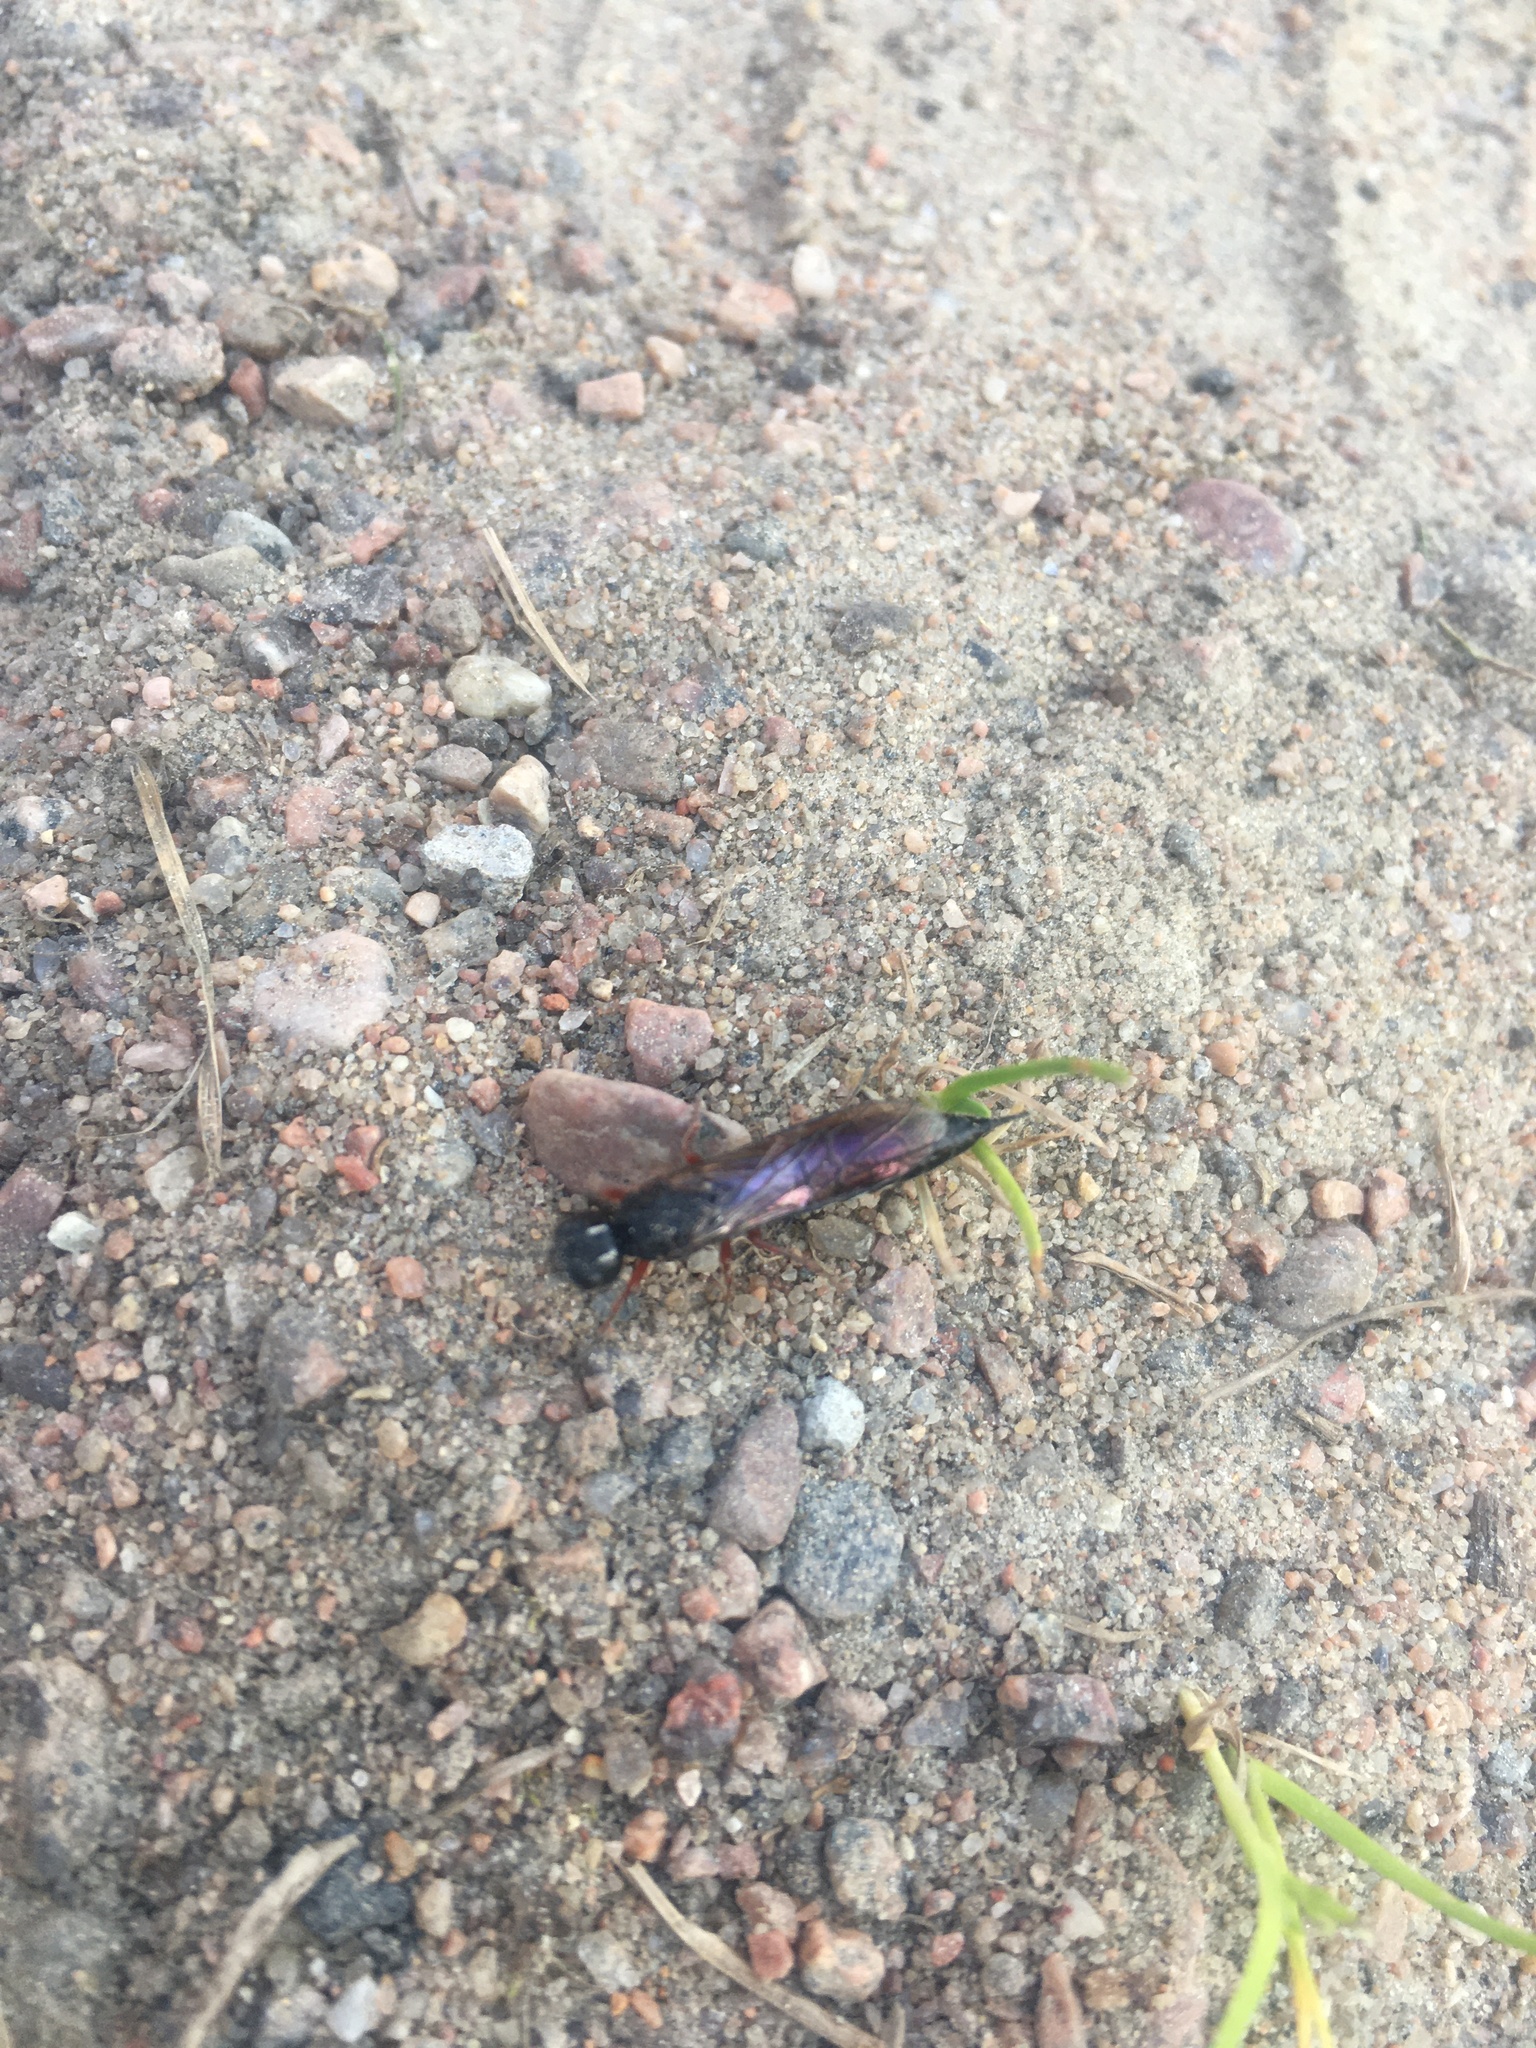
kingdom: Animalia
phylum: Arthropoda
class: Insecta
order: Hymenoptera
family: Xiphydriidae
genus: Xiphydria
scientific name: Xiphydria camelus
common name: Alder wood-wasp
